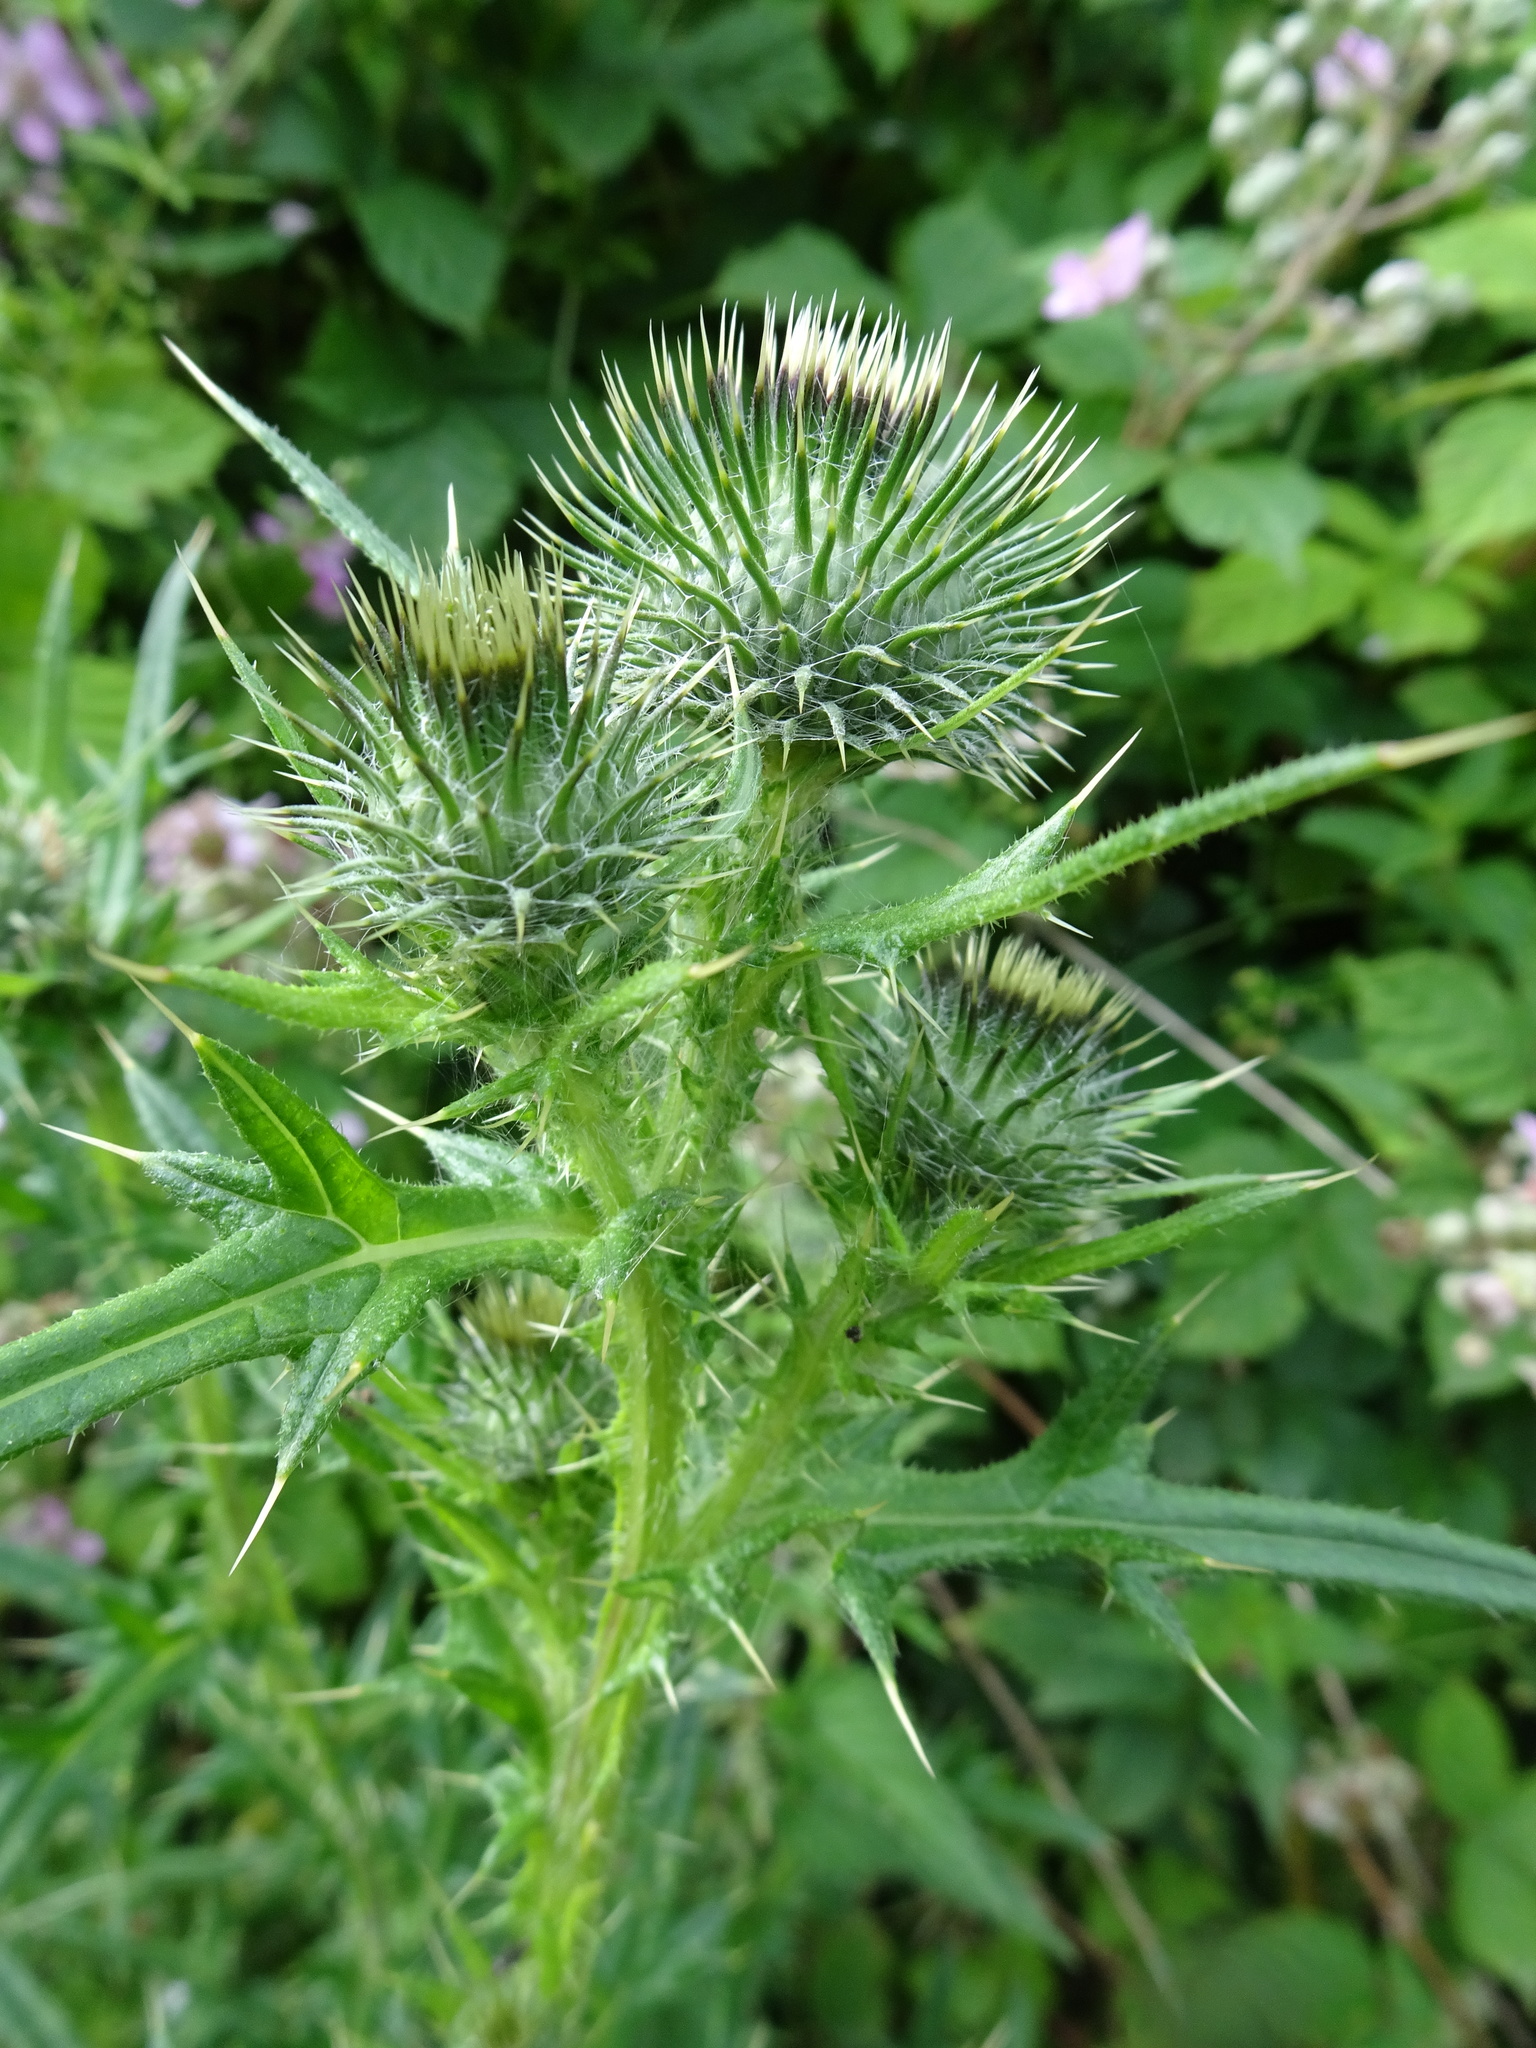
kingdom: Plantae
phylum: Tracheophyta
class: Magnoliopsida
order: Asterales
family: Asteraceae
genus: Cirsium
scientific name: Cirsium vulgare
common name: Bull thistle
